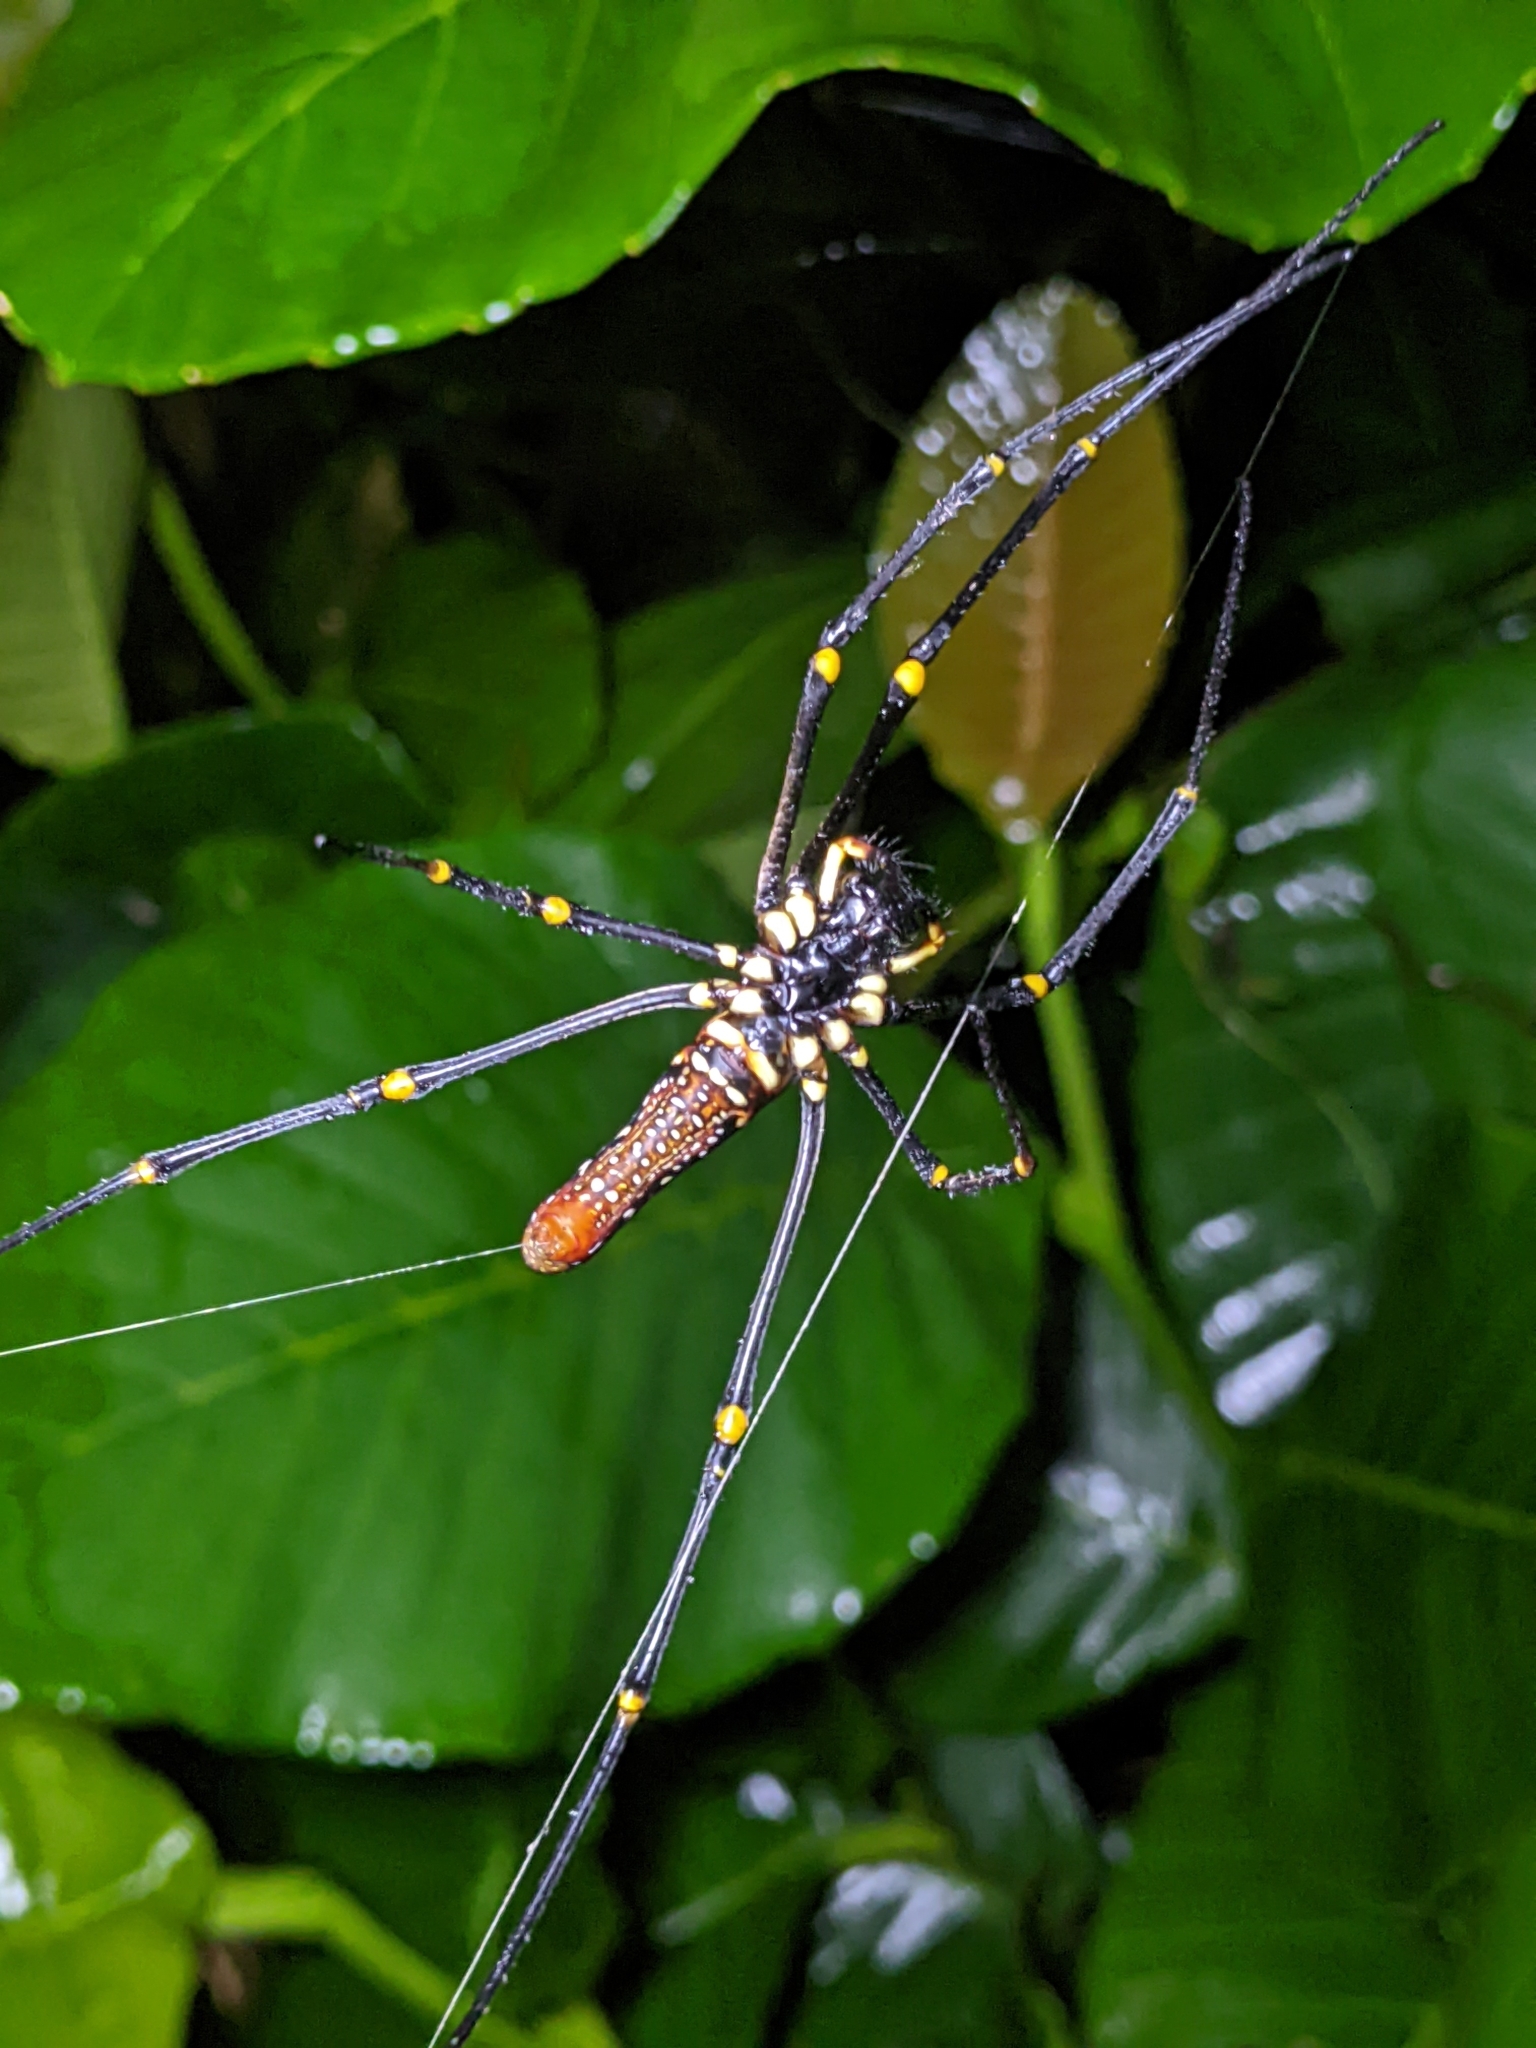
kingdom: Animalia
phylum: Arthropoda
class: Arachnida
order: Araneae
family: Araneidae
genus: Nephila
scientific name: Nephila pilipes
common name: Giant golden orb weaver
